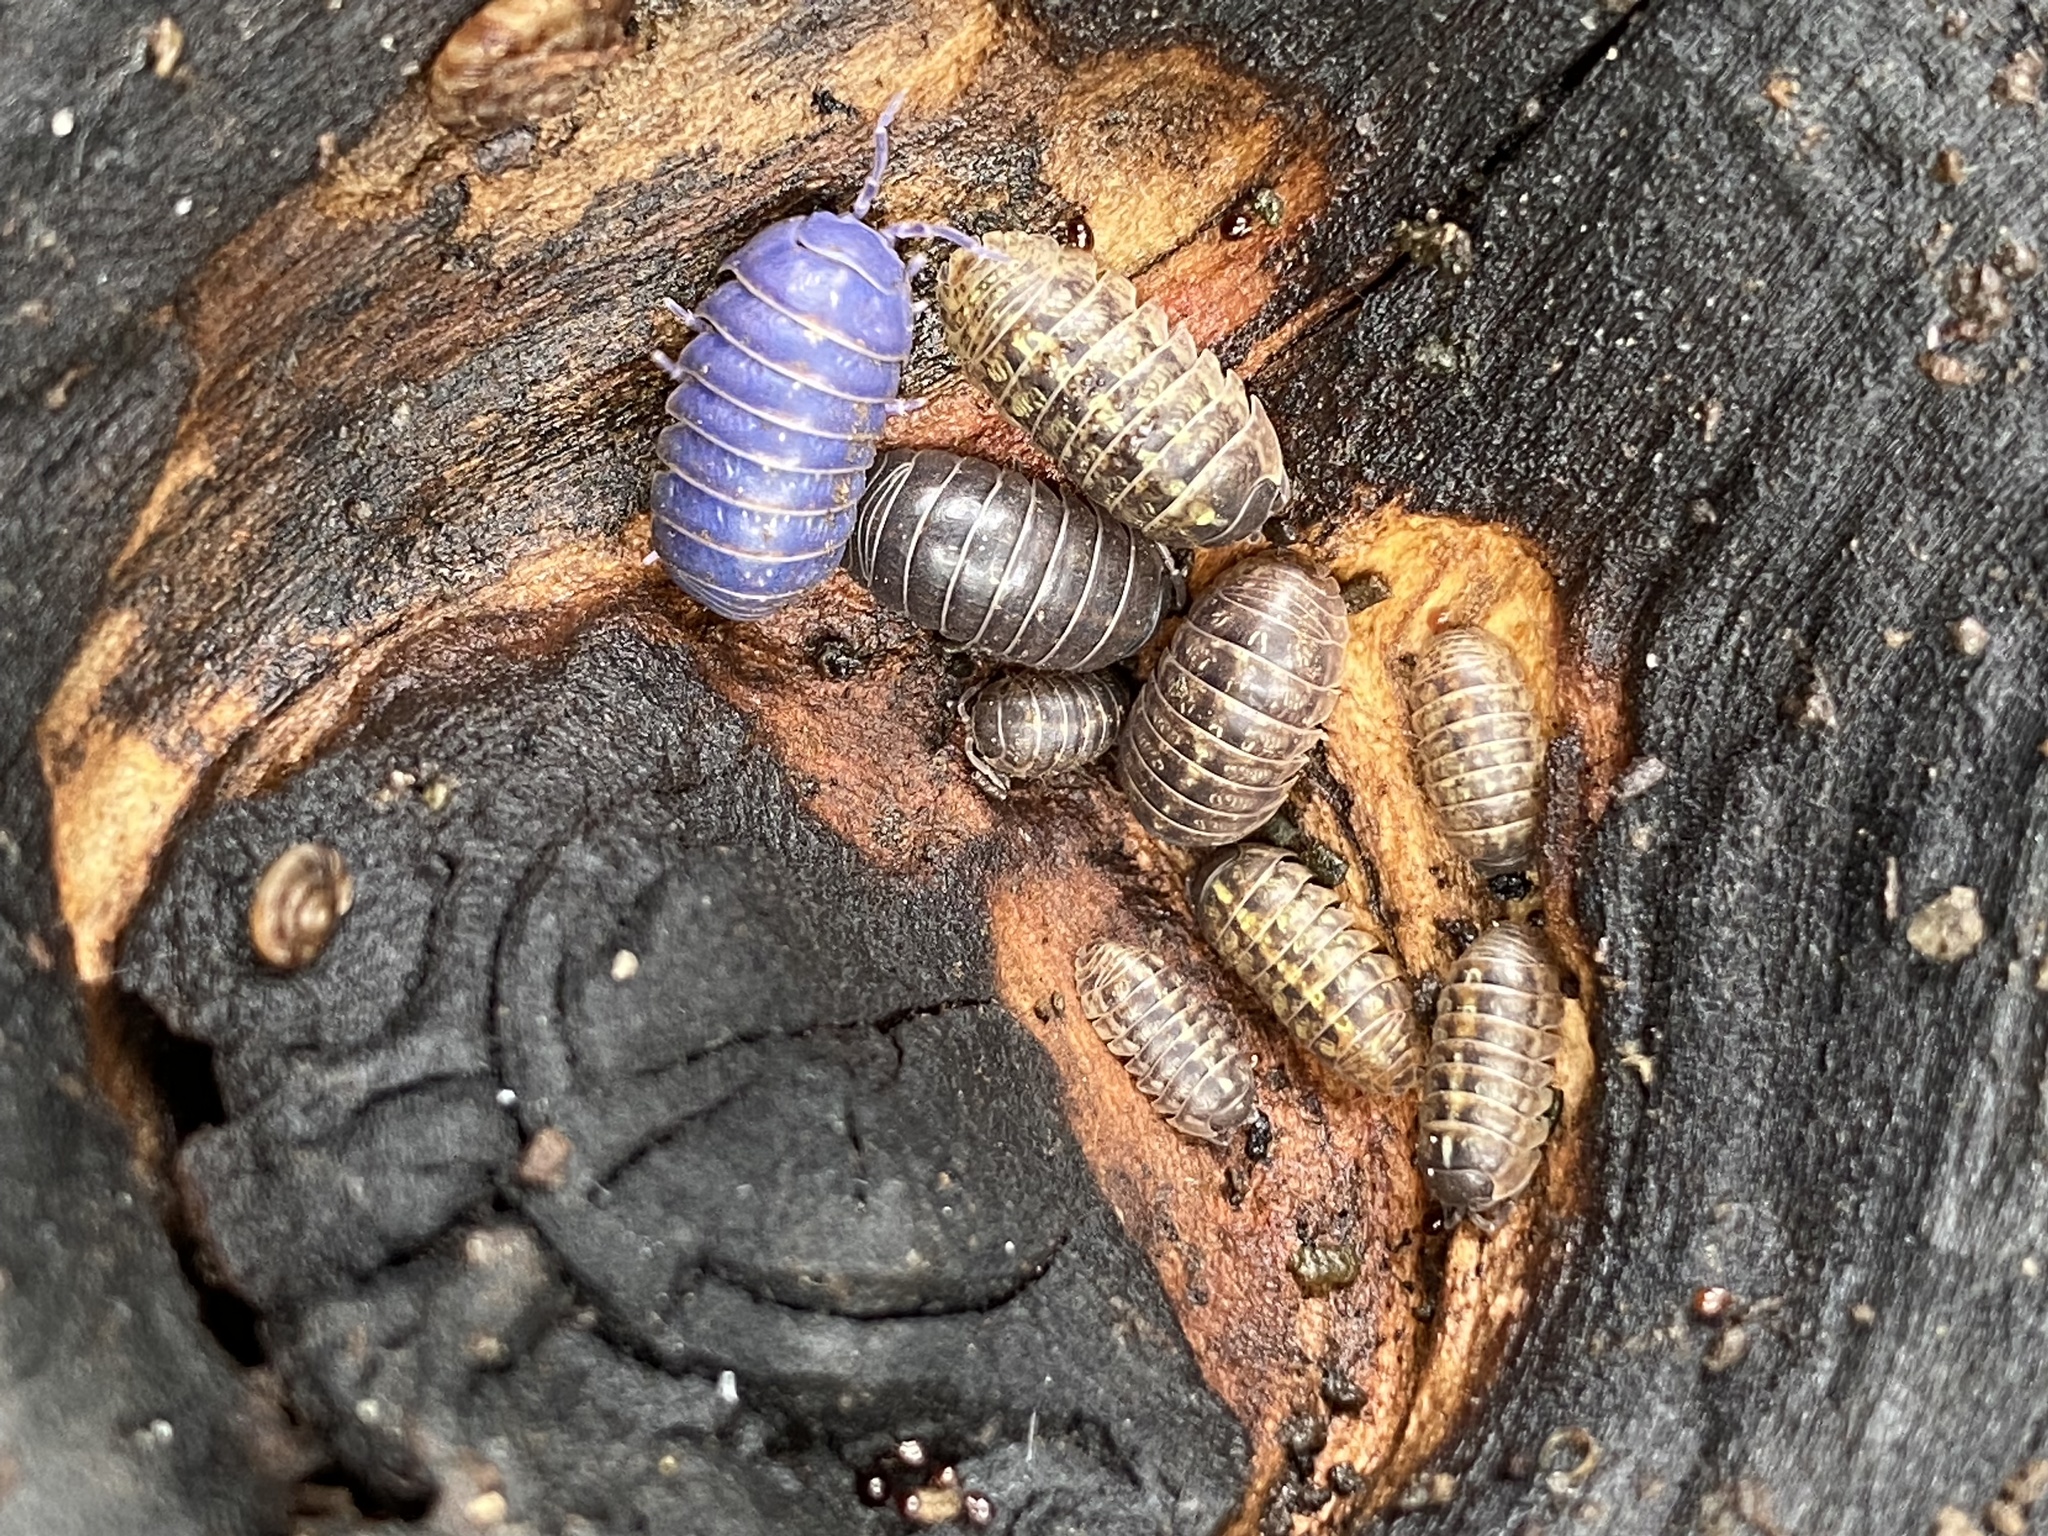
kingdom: Viruses
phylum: Nucleocytoviricota
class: Megaviricetes
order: Pimascovirales
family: Iridoviridae
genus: Iridovirus
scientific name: Iridovirus Invertebrate iridescent virus 31
